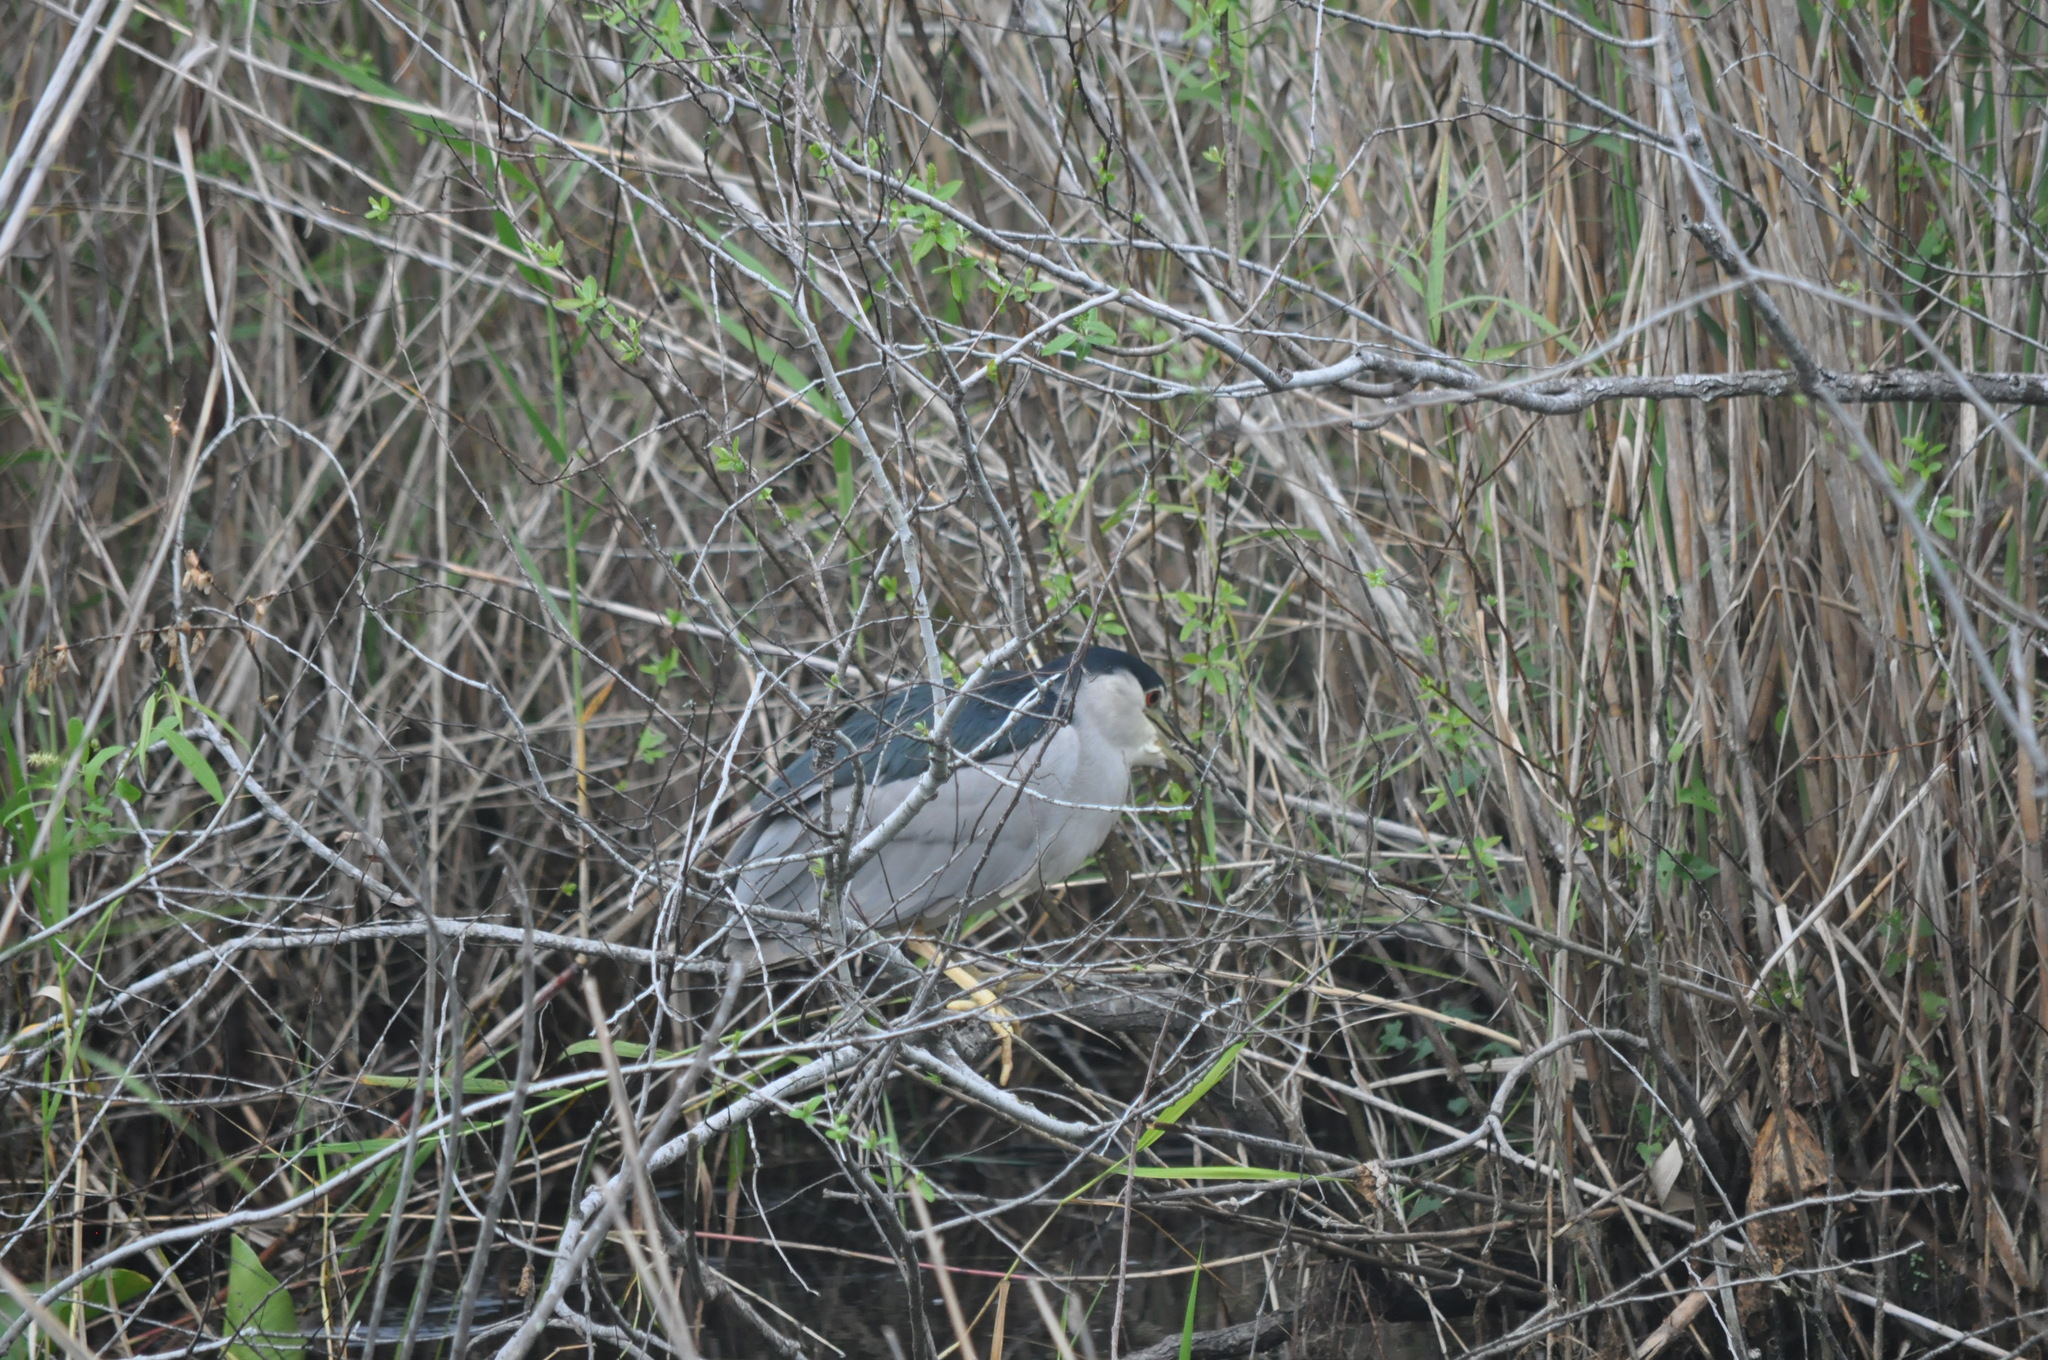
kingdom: Animalia
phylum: Chordata
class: Aves
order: Pelecaniformes
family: Ardeidae
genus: Nycticorax
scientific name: Nycticorax nycticorax
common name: Black-crowned night heron
